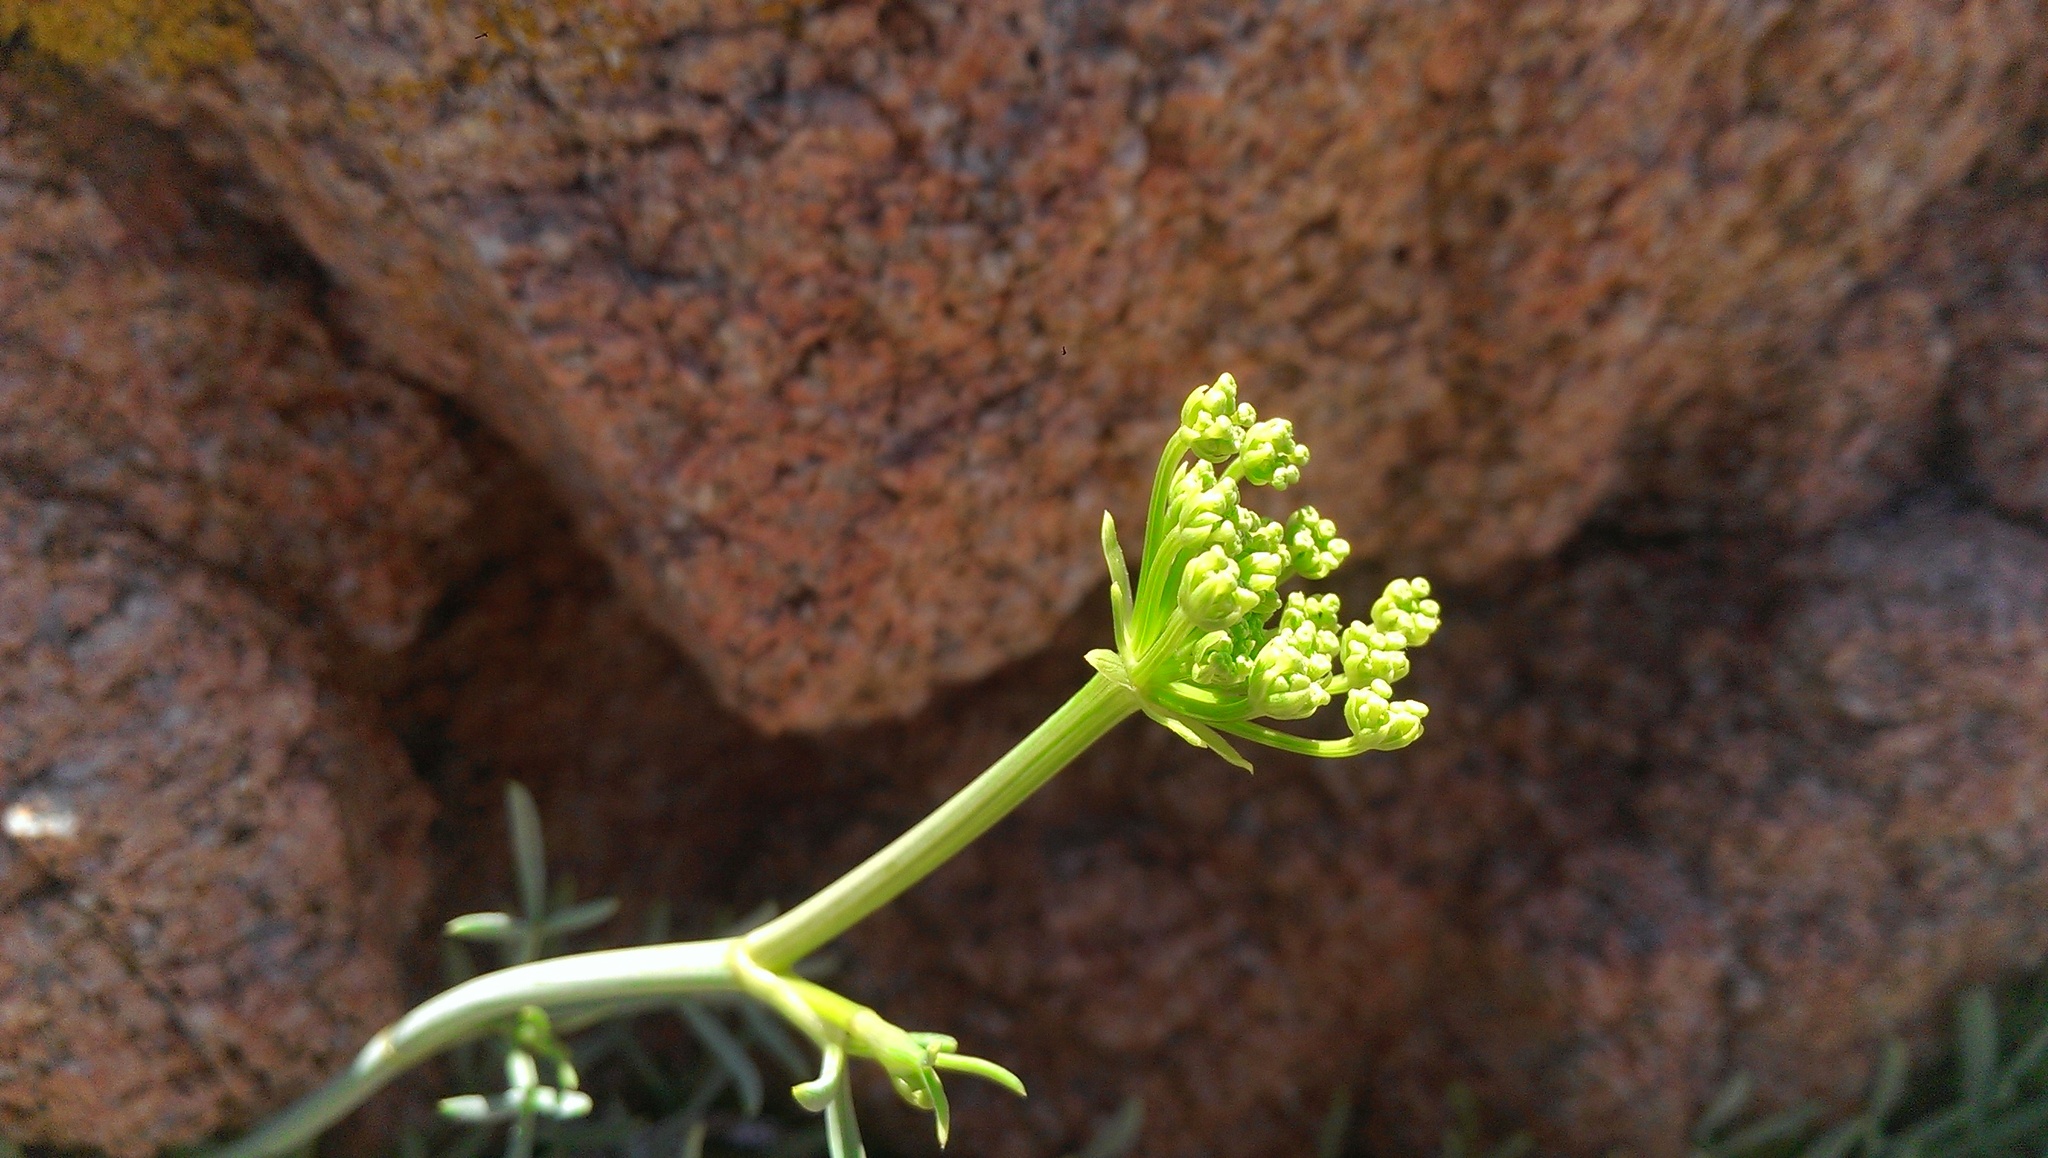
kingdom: Plantae
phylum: Tracheophyta
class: Magnoliopsida
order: Apiales
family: Apiaceae
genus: Crithmum
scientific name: Crithmum maritimum
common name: Rock samphire
